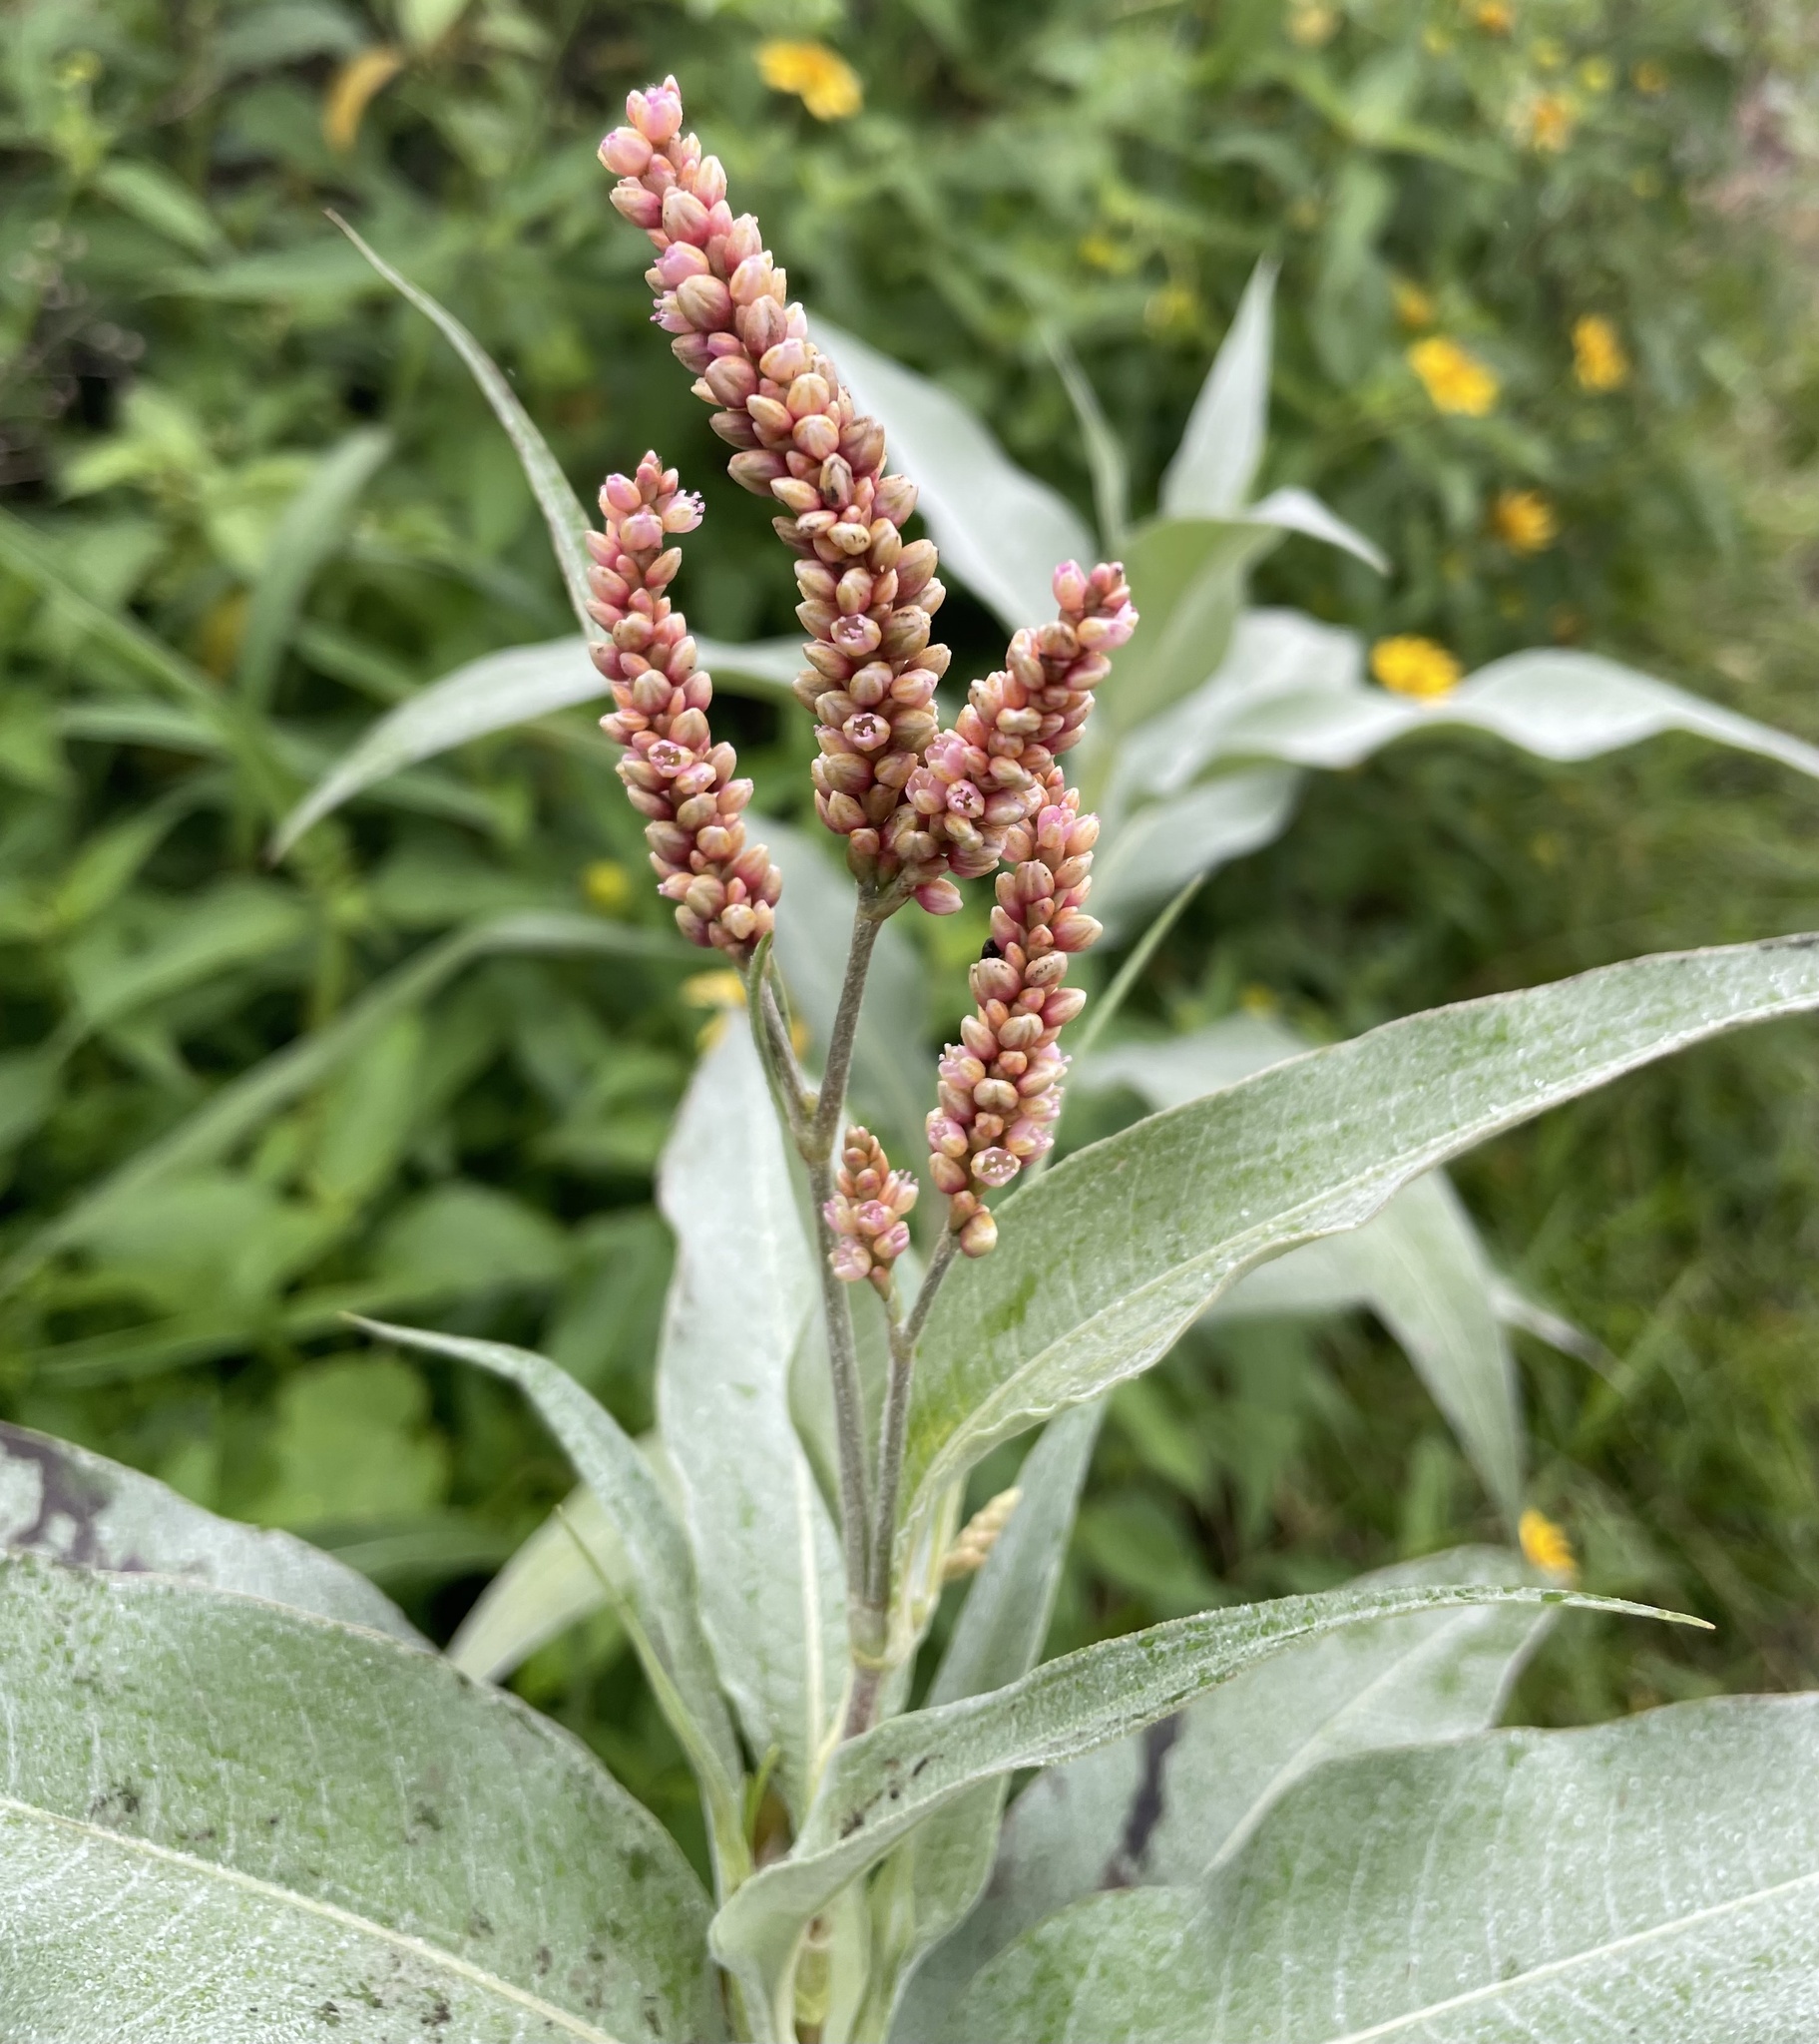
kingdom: Plantae
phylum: Tracheophyta
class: Magnoliopsida
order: Caryophyllales
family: Polygonaceae
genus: Persicaria
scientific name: Persicaria senegalensis
